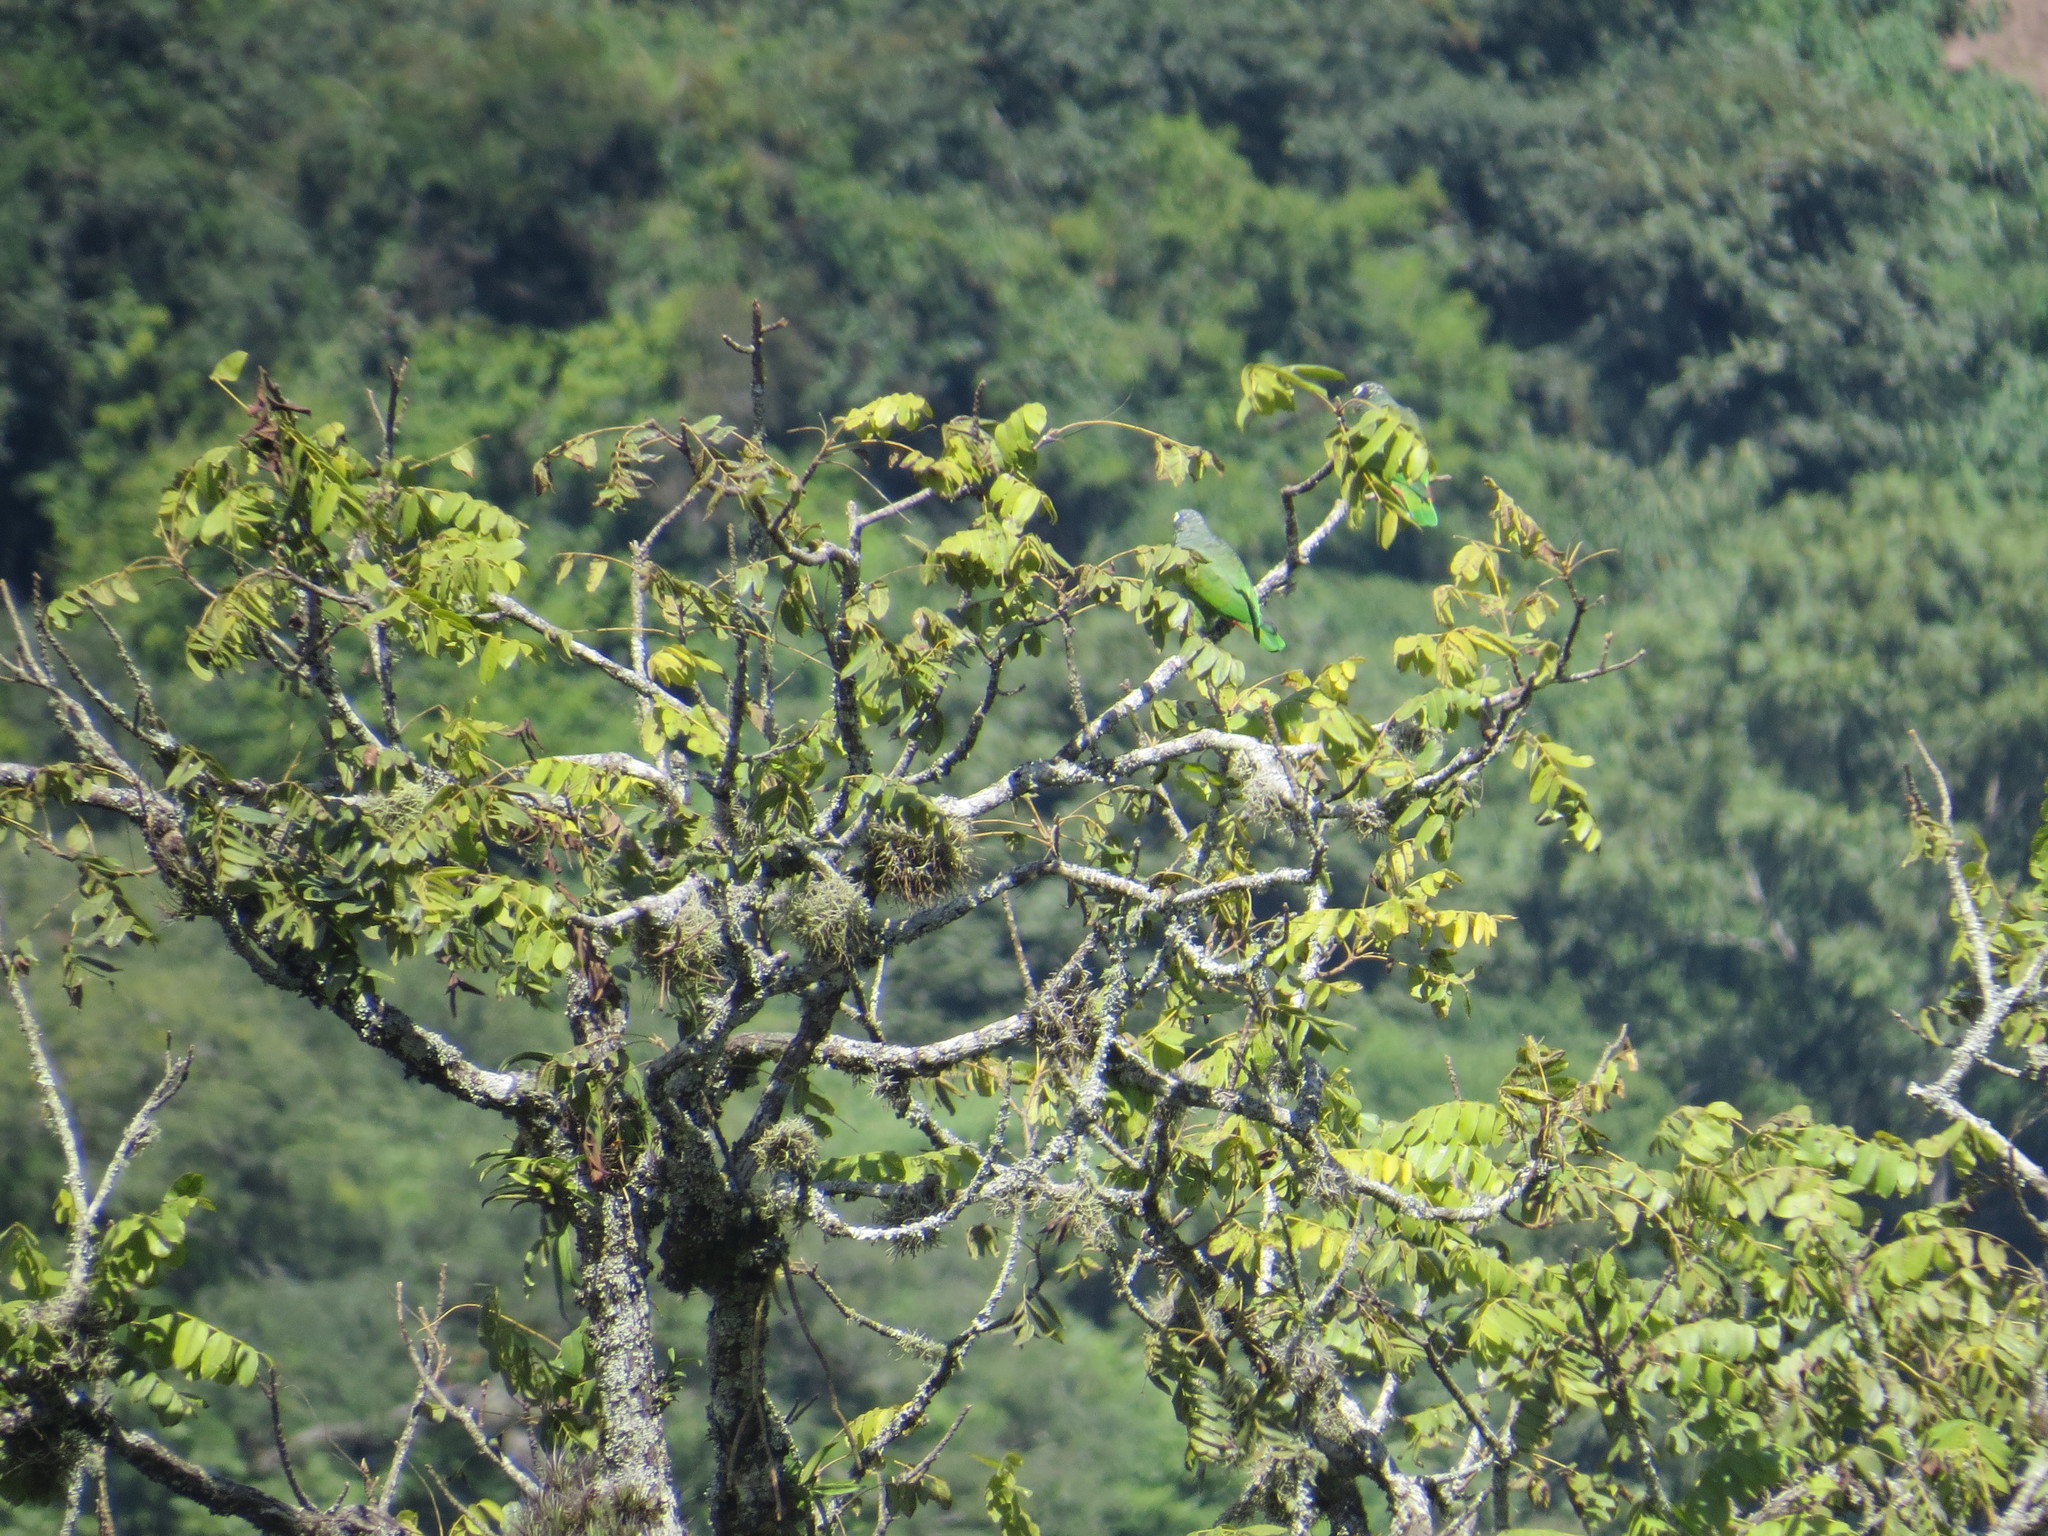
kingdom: Animalia
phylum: Chordata
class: Aves
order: Psittaciformes
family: Psittacidae
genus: Pionus
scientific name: Pionus maximiliani
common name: Scaly-headed parrot
